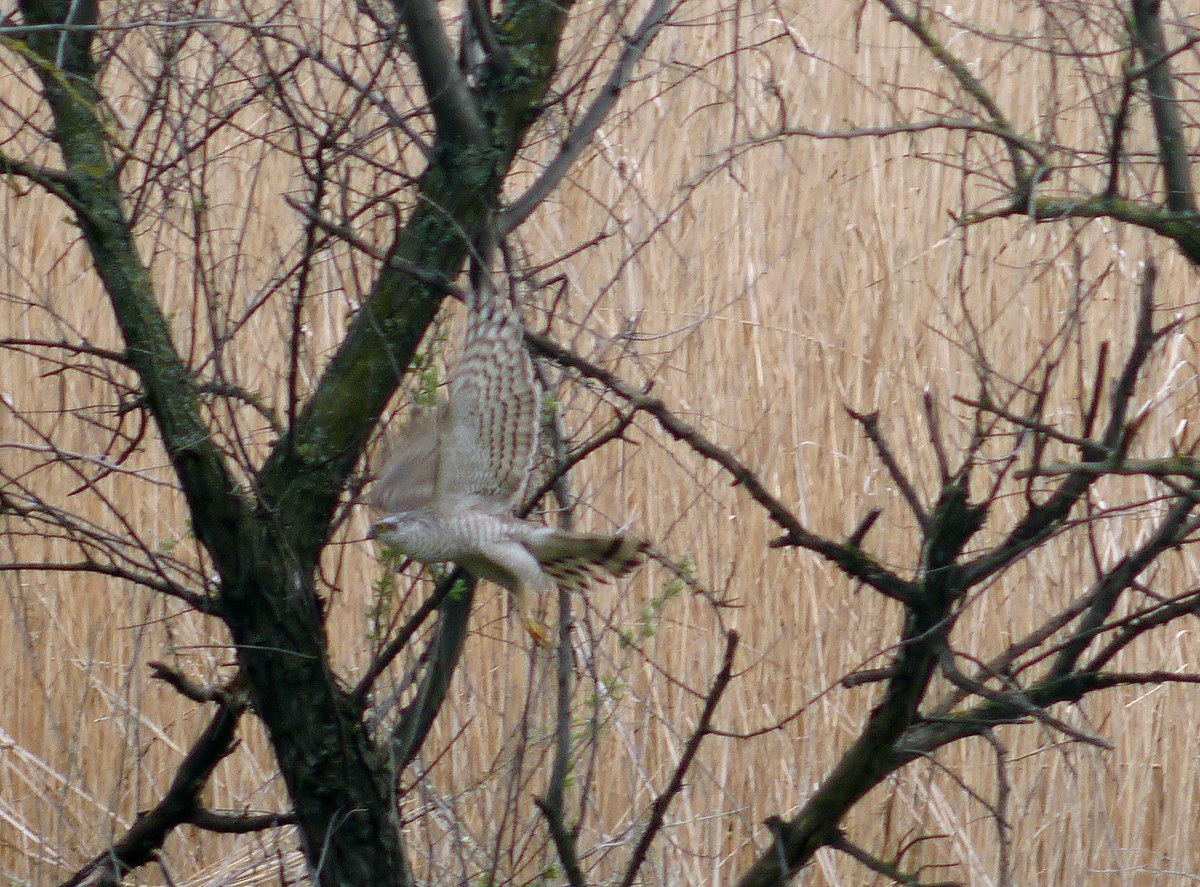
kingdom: Animalia
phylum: Chordata
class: Aves
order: Accipitriformes
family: Accipitridae
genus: Accipiter
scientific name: Accipiter nisus
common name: Eurasian sparrowhawk
